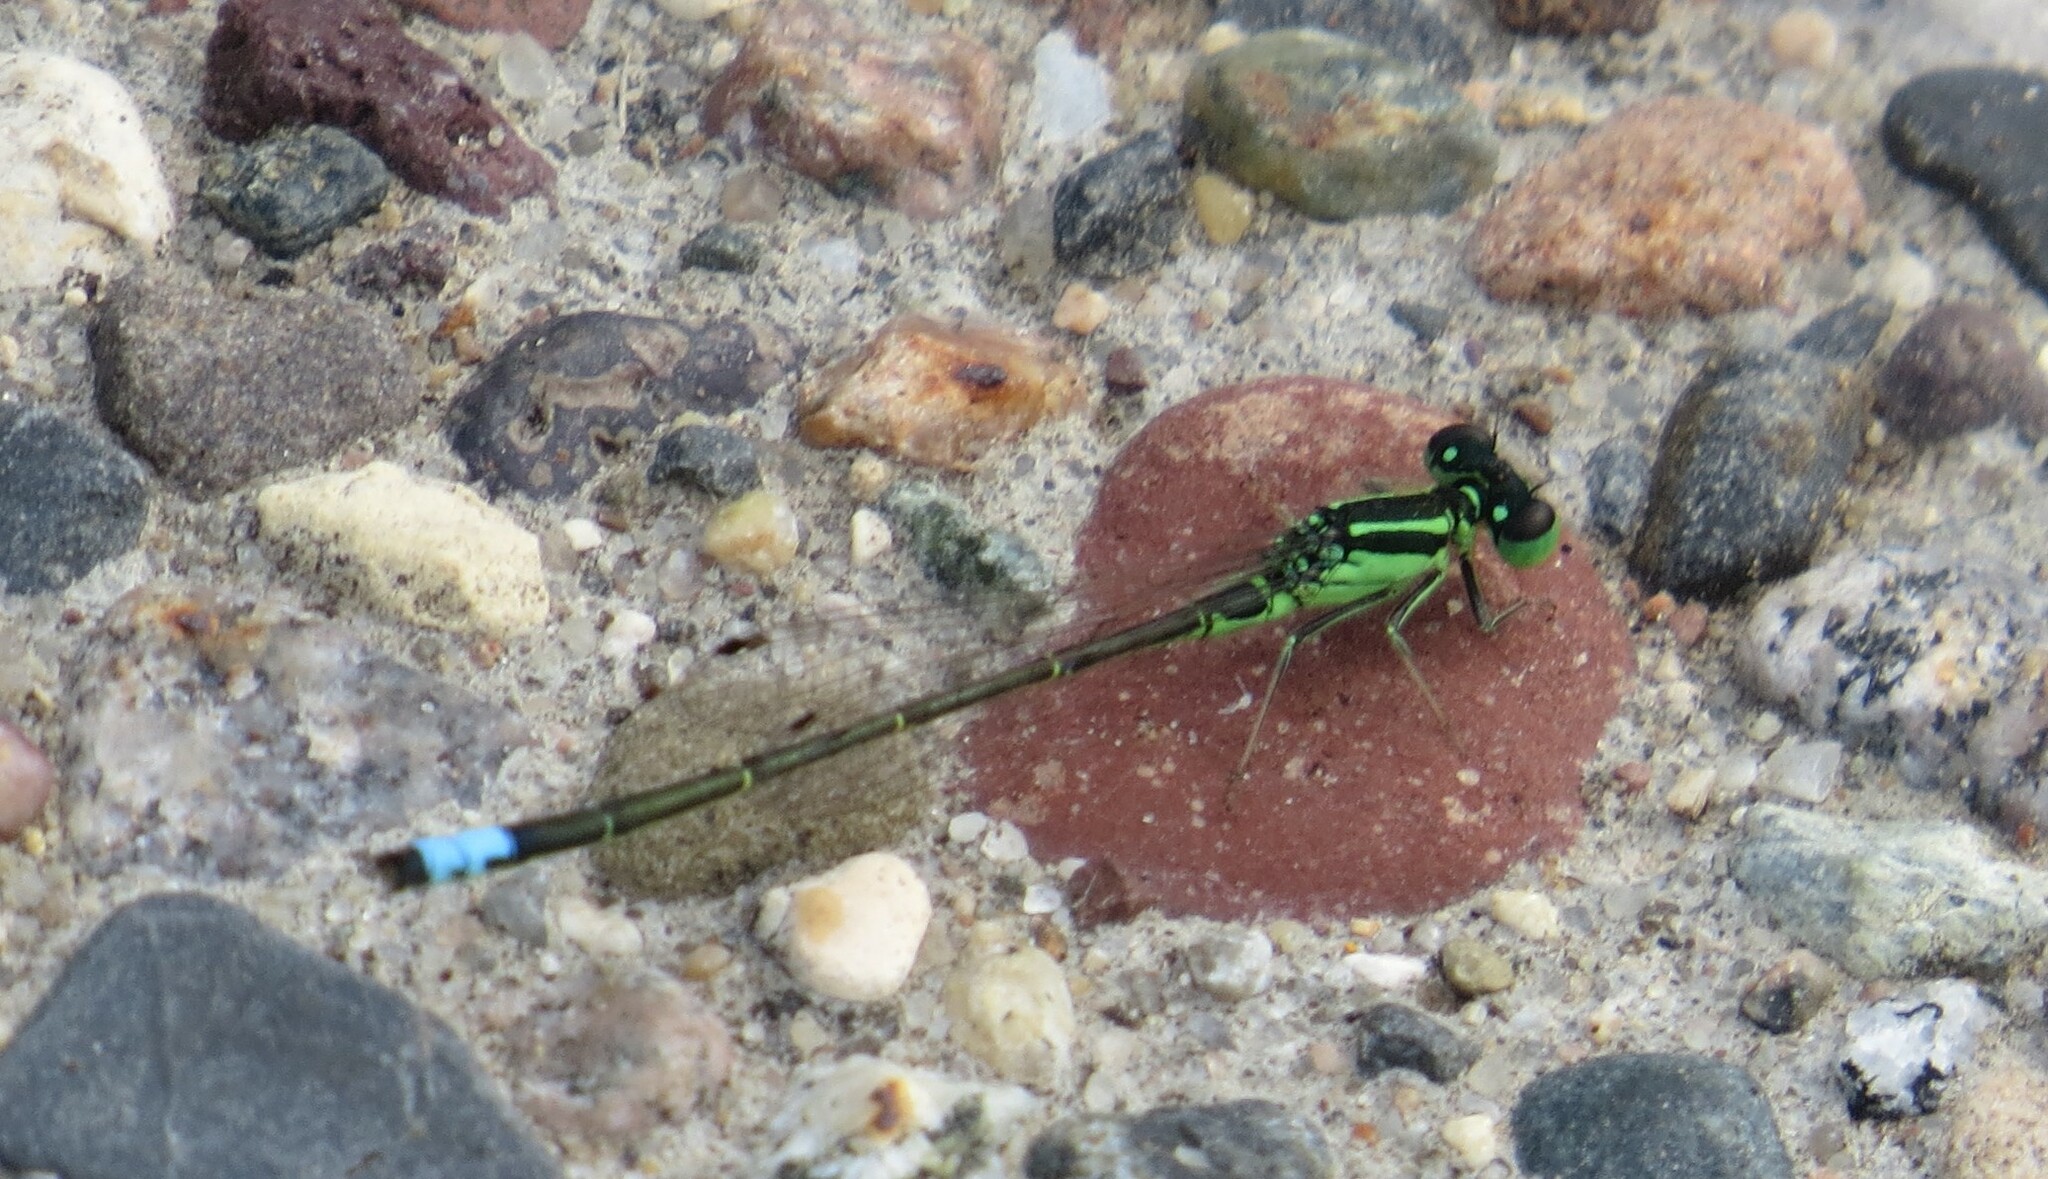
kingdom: Animalia
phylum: Arthropoda
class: Insecta
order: Odonata
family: Coenagrionidae
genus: Ischnura
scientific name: Ischnura verticalis
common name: Eastern forktail
